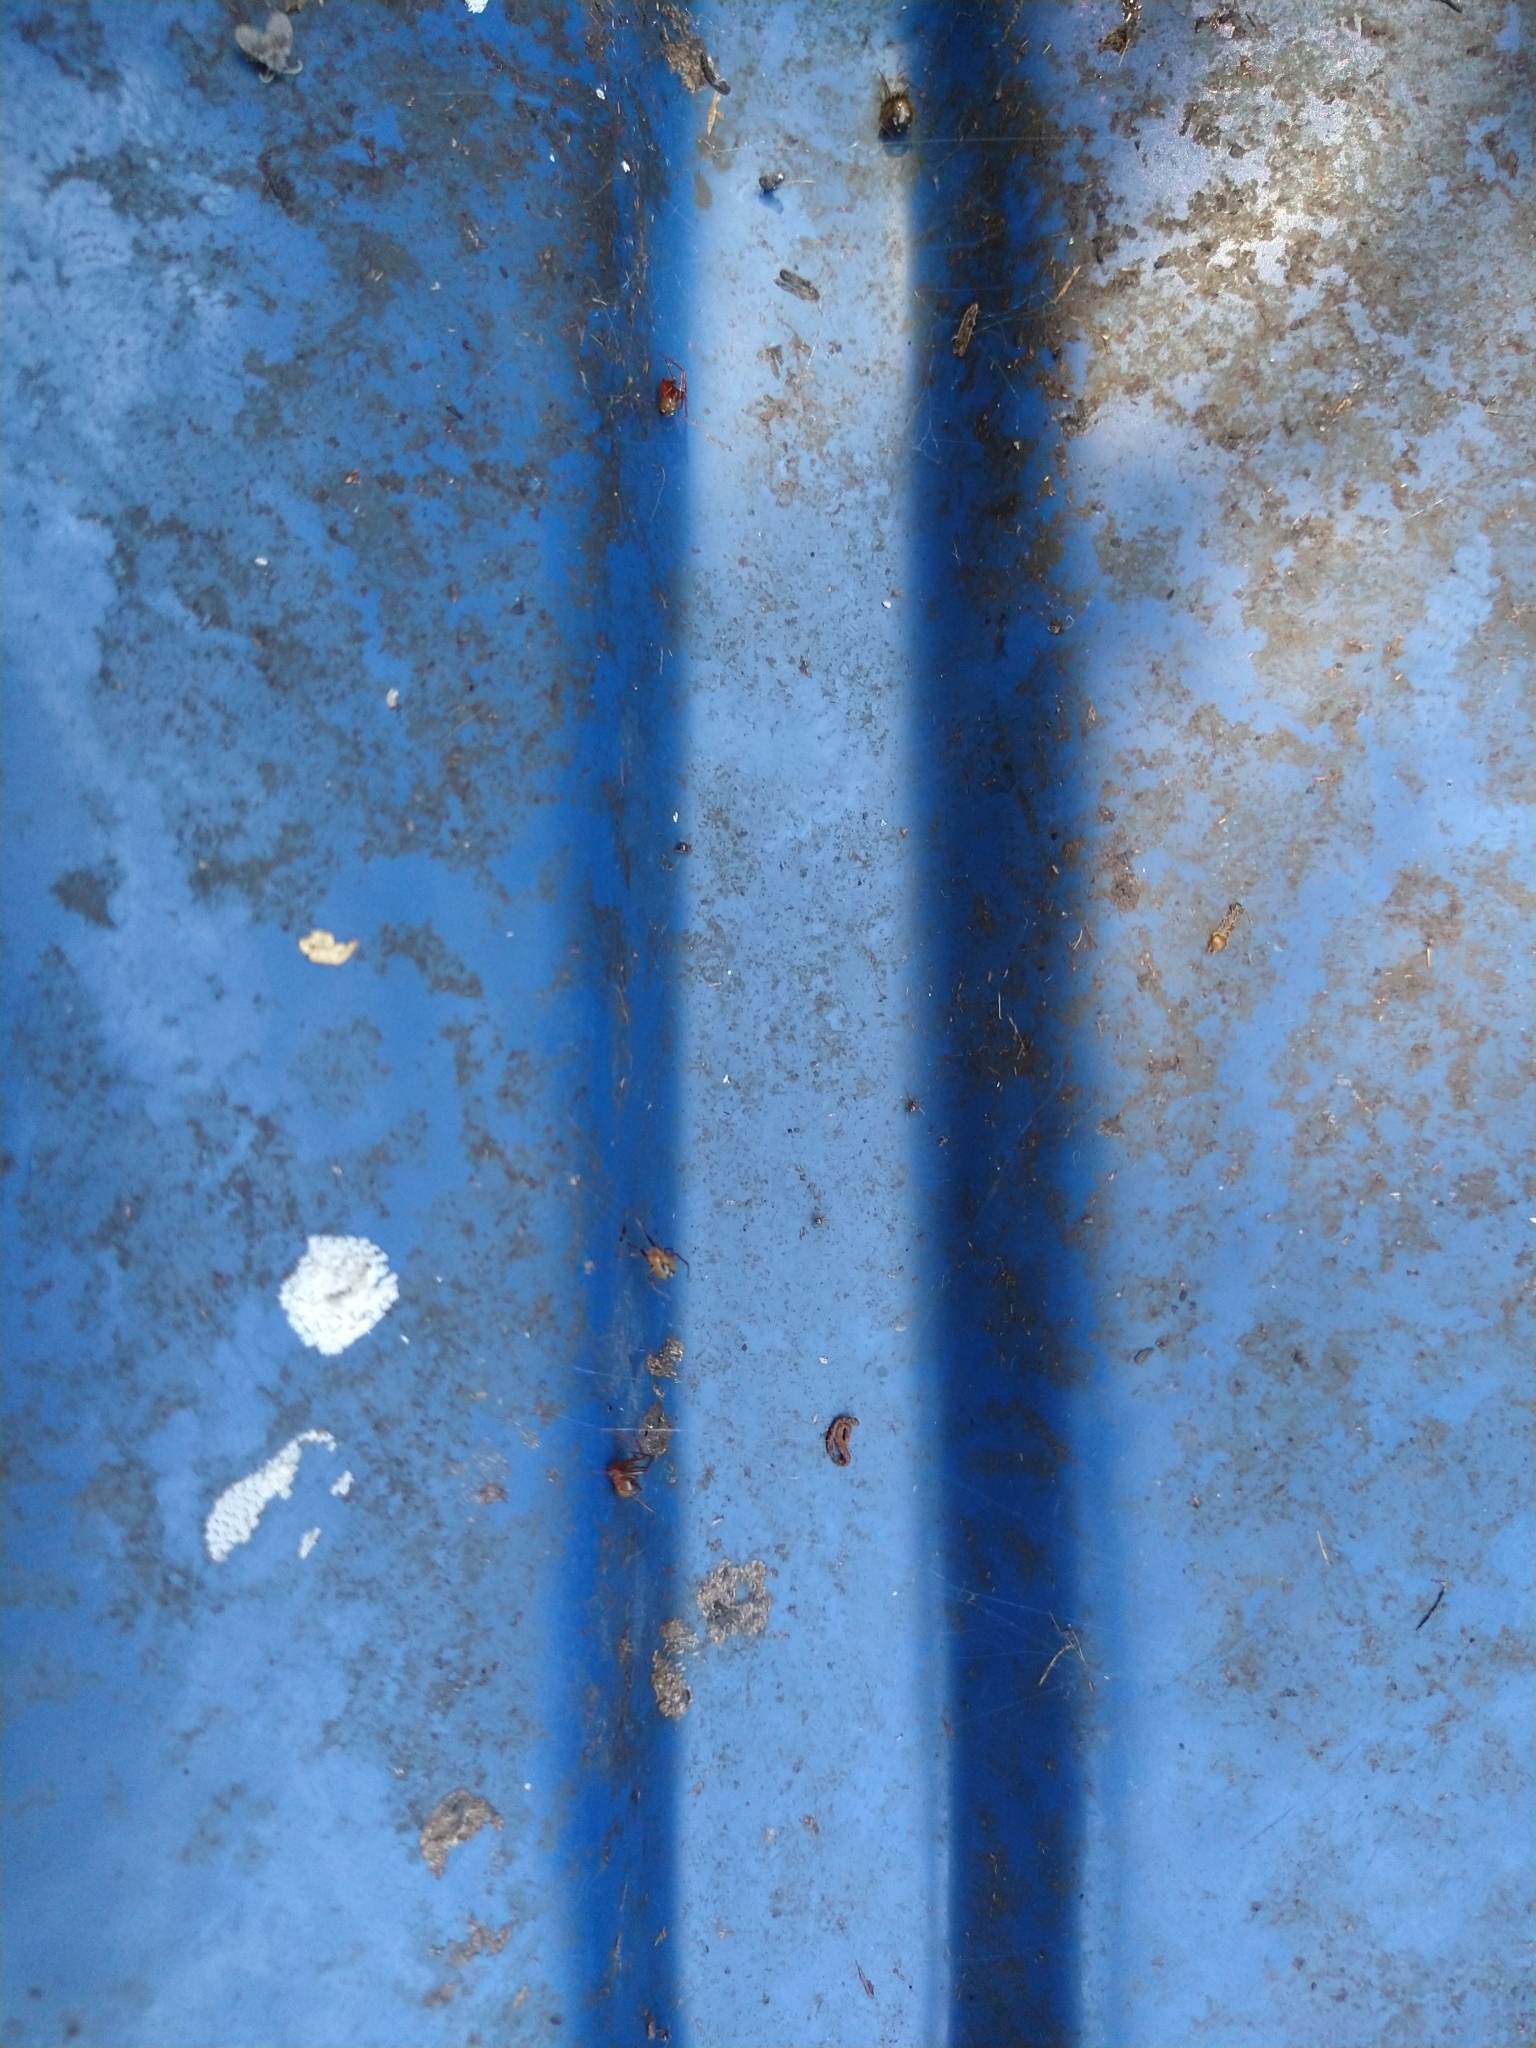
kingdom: Animalia
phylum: Arthropoda
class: Arachnida
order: Araneae
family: Theridiidae
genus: Nesticodes
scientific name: Nesticodes rufipes
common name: Cobweb spiders
